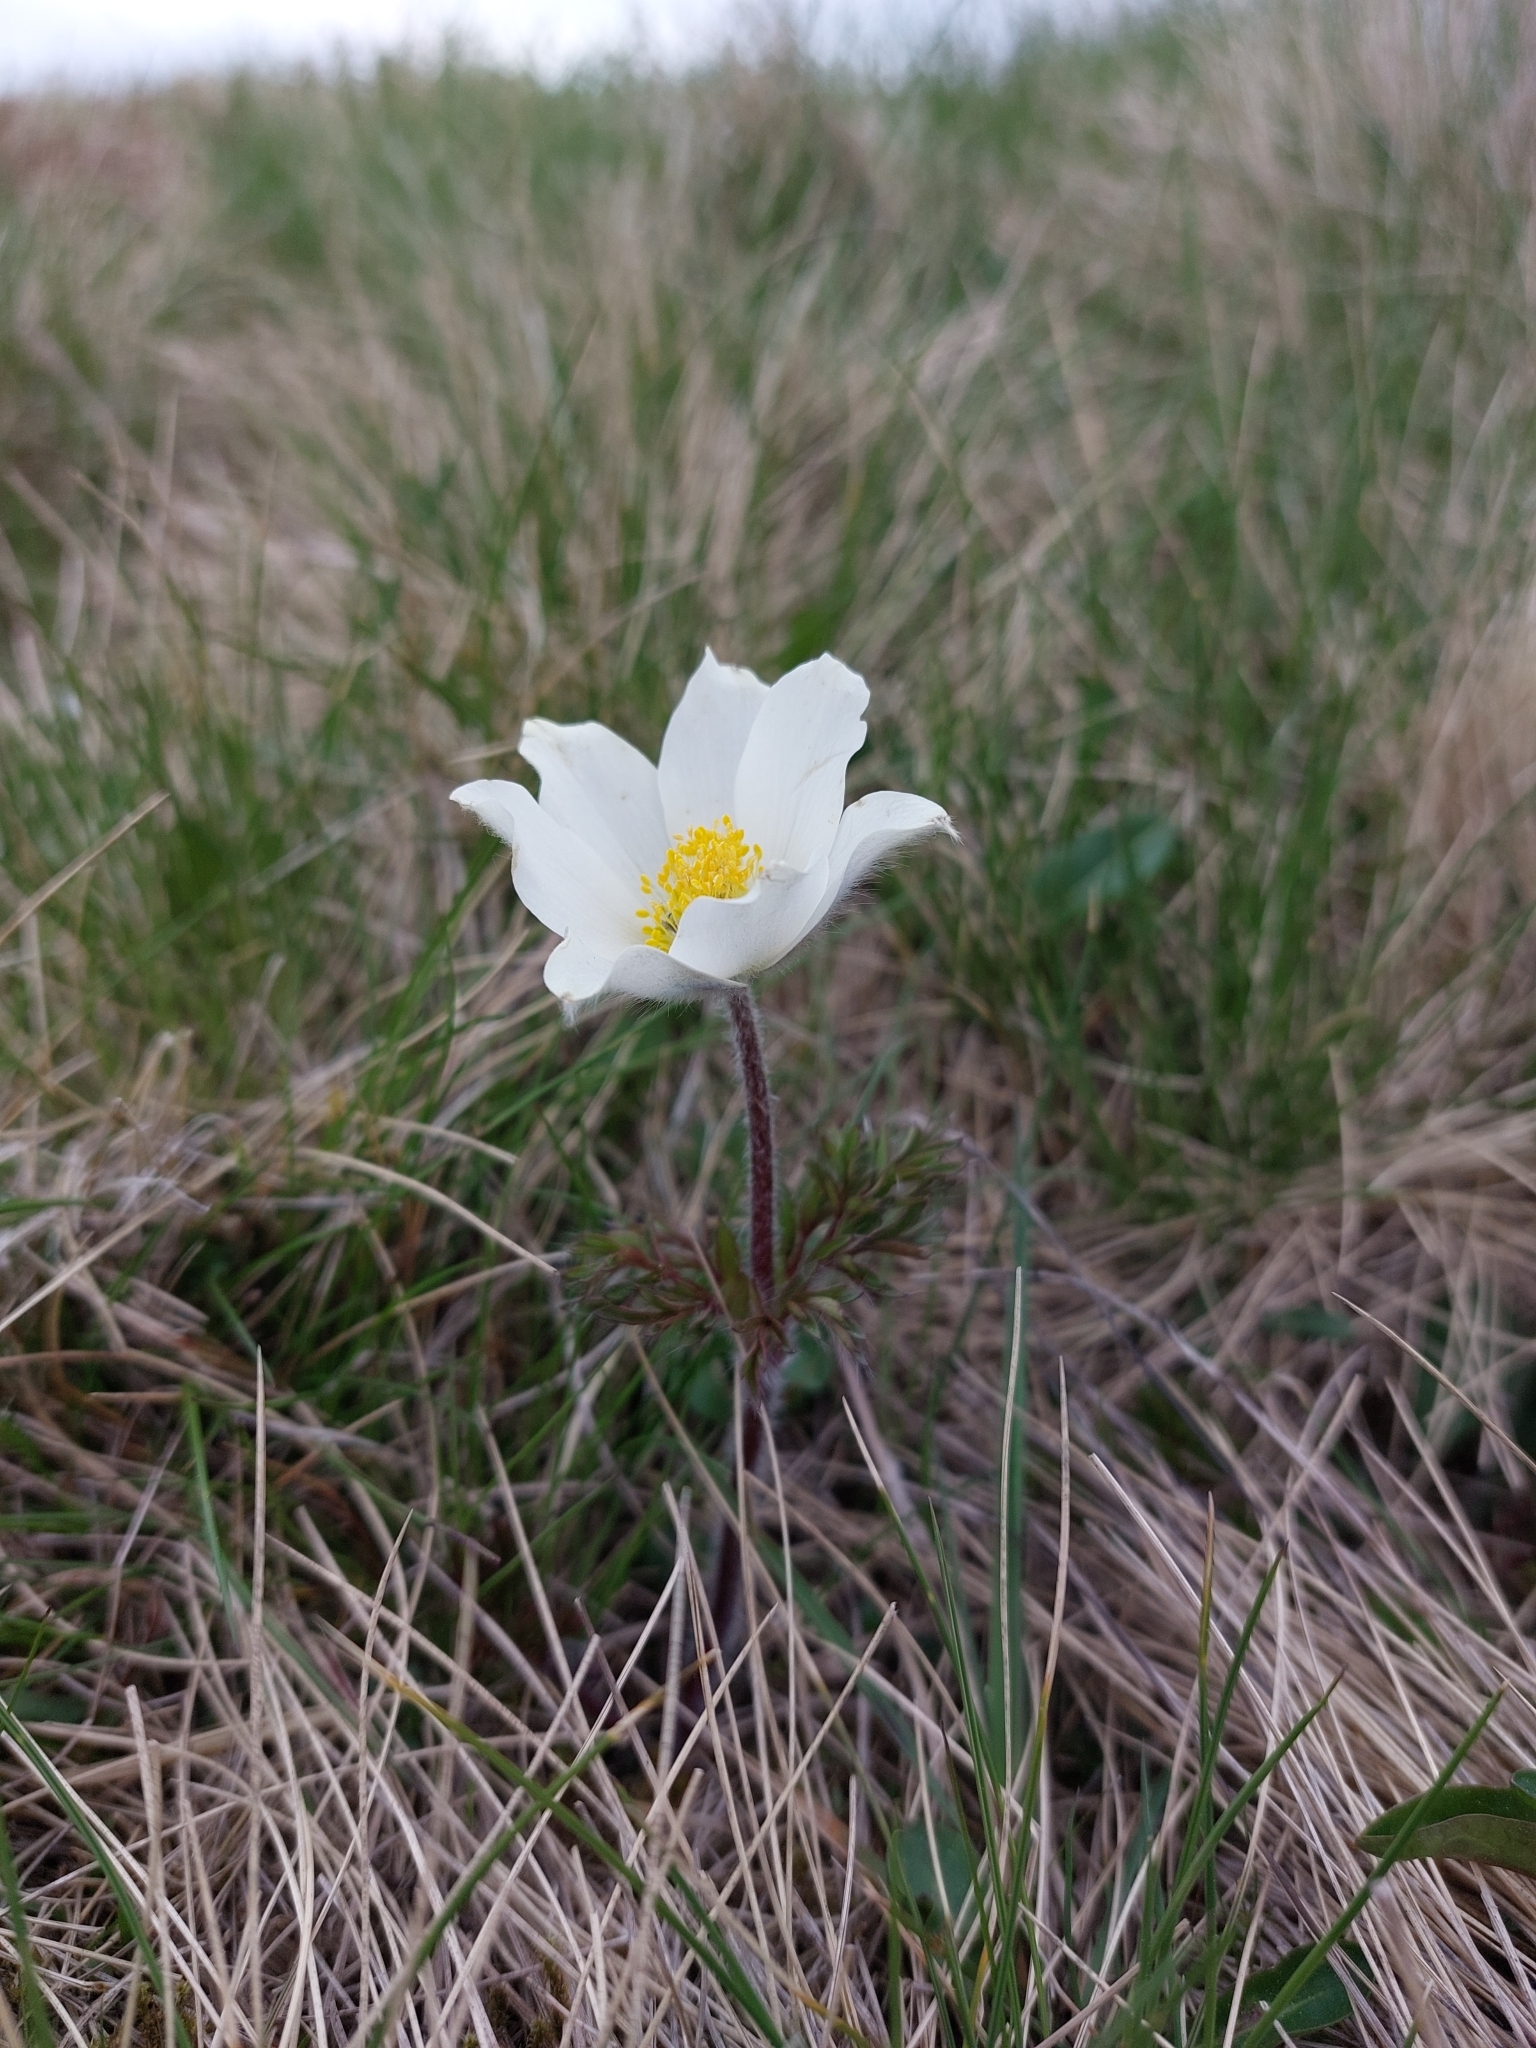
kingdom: Plantae
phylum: Tracheophyta
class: Magnoliopsida
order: Ranunculales
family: Ranunculaceae
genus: Pulsatilla
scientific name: Pulsatilla alpina
